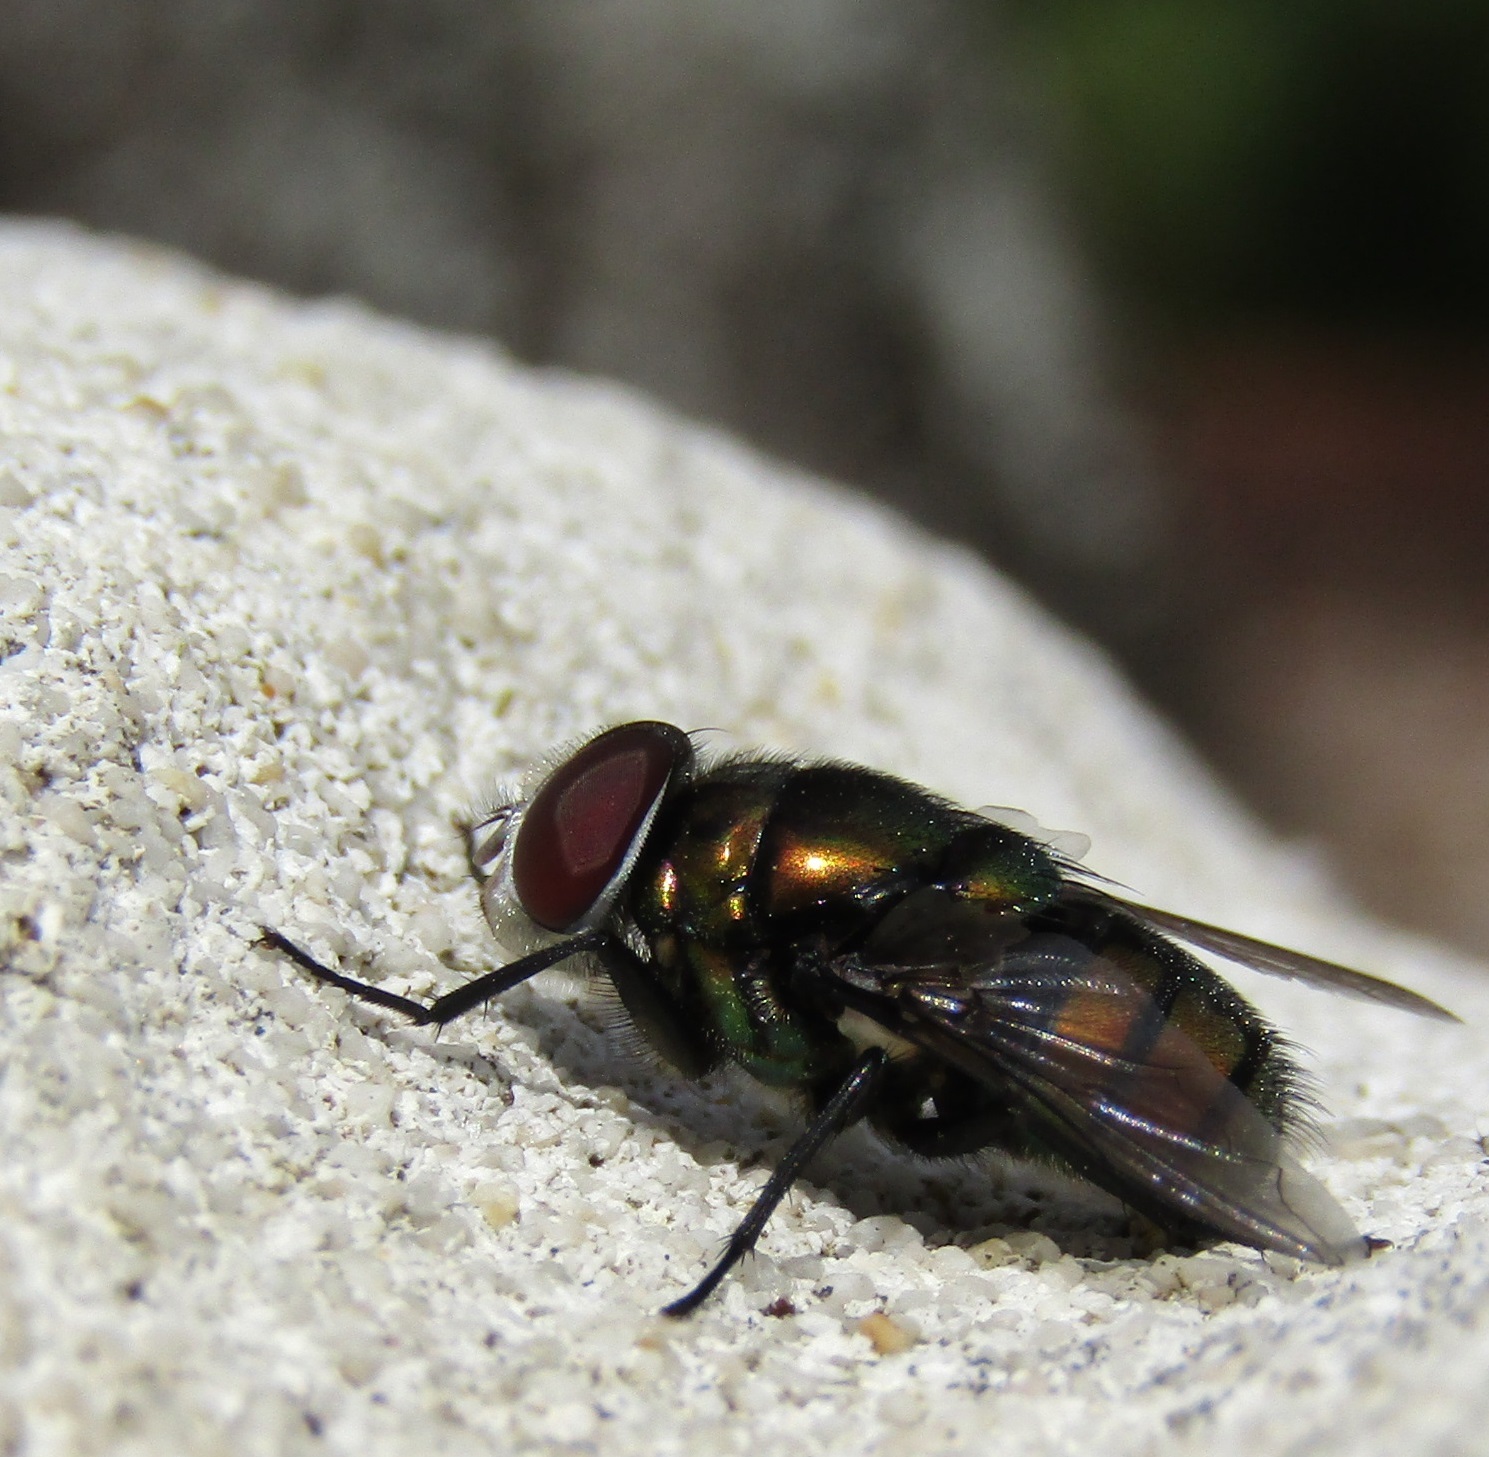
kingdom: Animalia
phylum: Arthropoda
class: Insecta
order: Diptera
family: Calliphoridae
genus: Chrysomya
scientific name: Chrysomya rufifacies
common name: Blow fly
